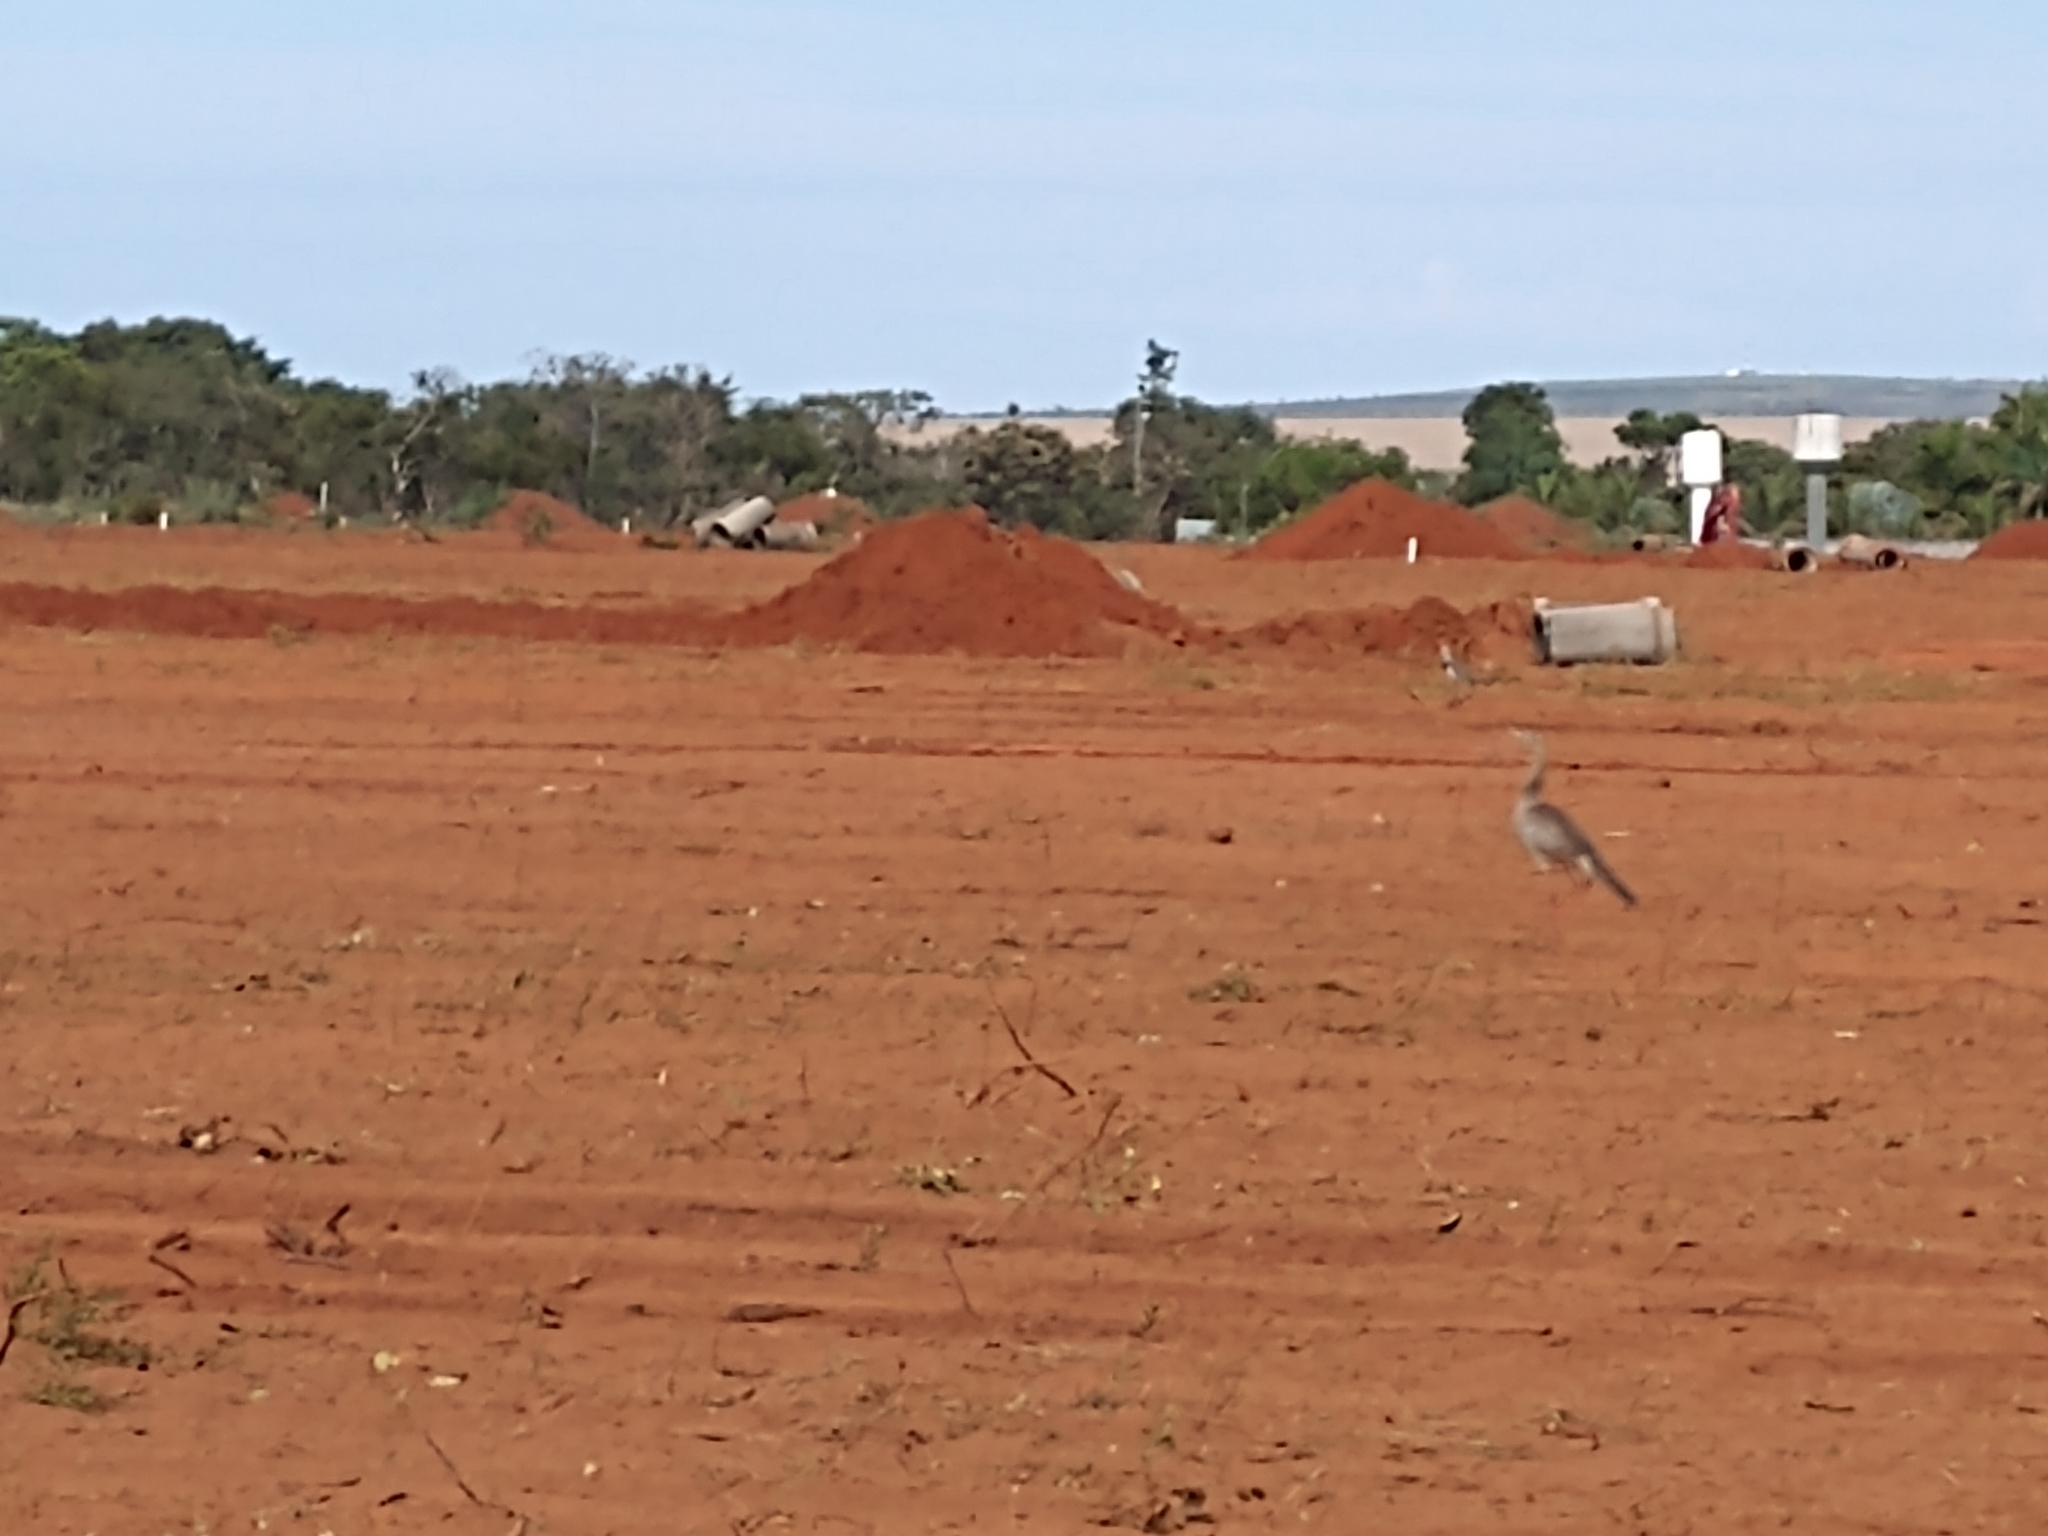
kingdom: Animalia
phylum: Chordata
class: Aves
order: Cariamiformes
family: Cariamidae
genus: Cariama
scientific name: Cariama cristata
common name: Red-legged seriema
